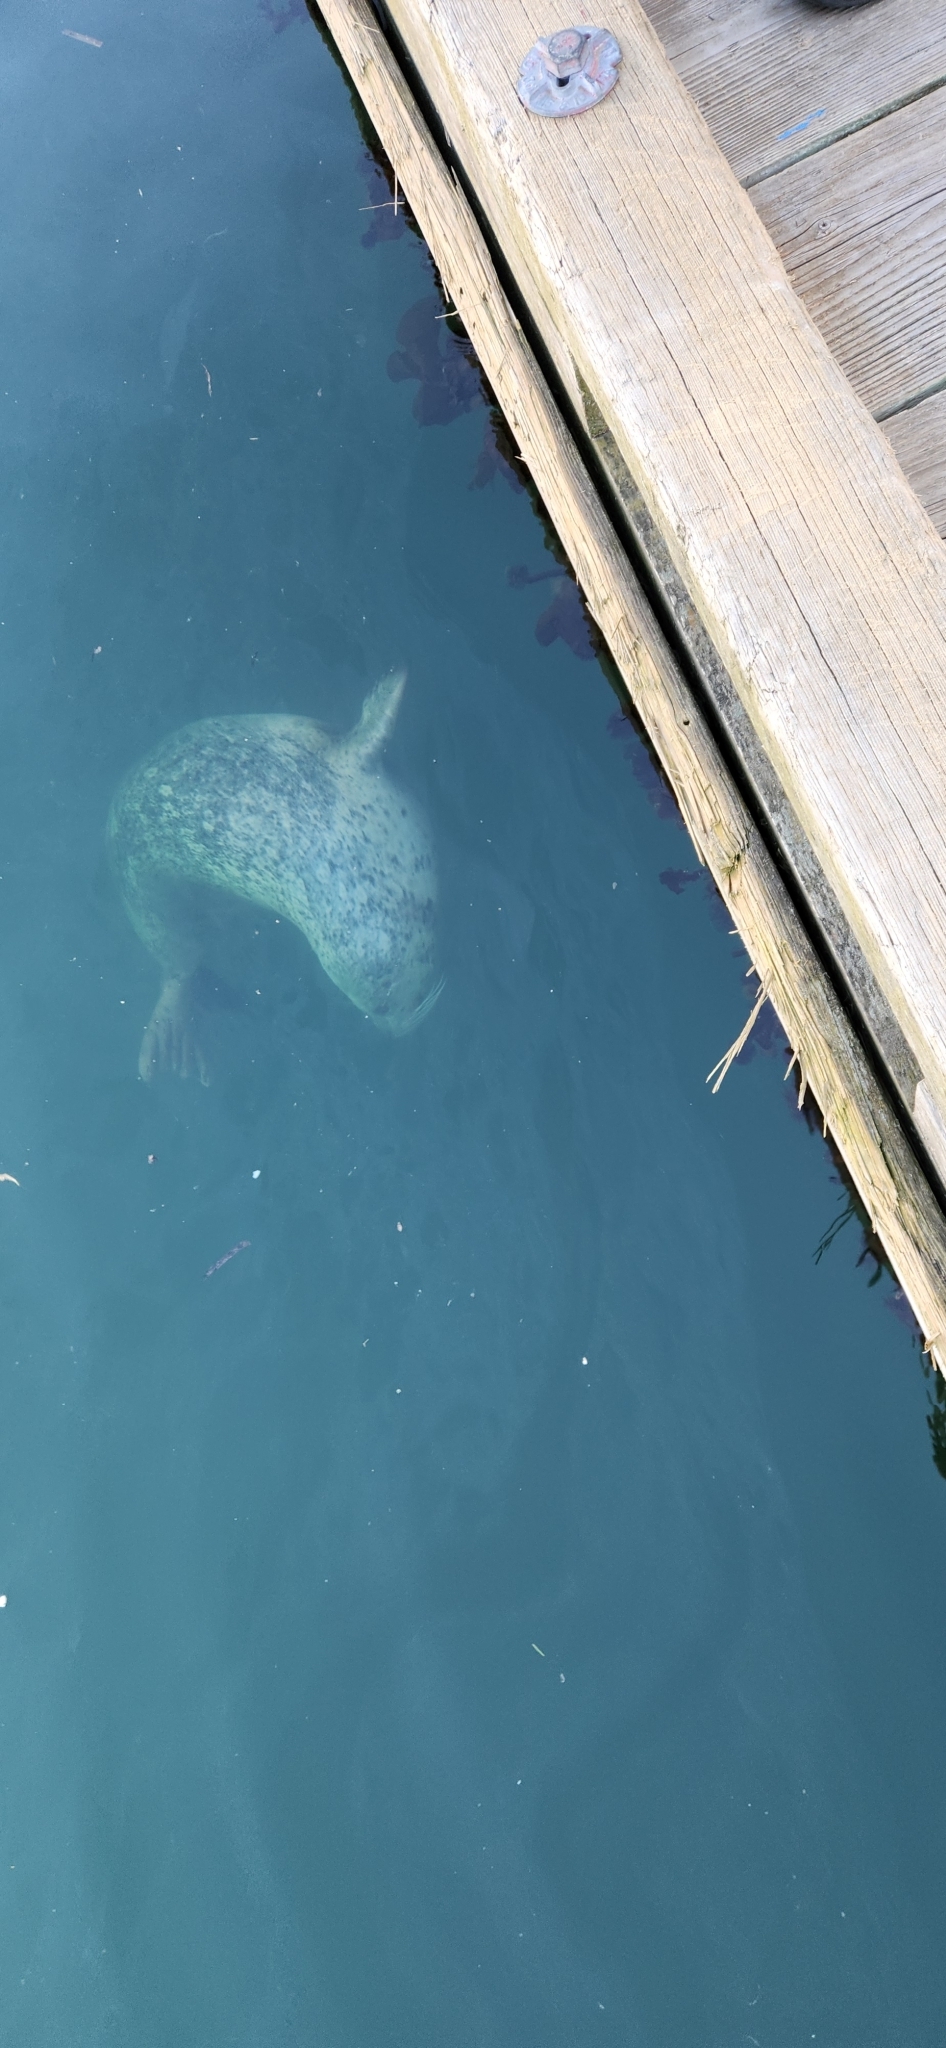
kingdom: Animalia
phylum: Chordata
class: Mammalia
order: Carnivora
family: Phocidae
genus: Phoca
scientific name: Phoca vitulina
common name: Harbor seal
